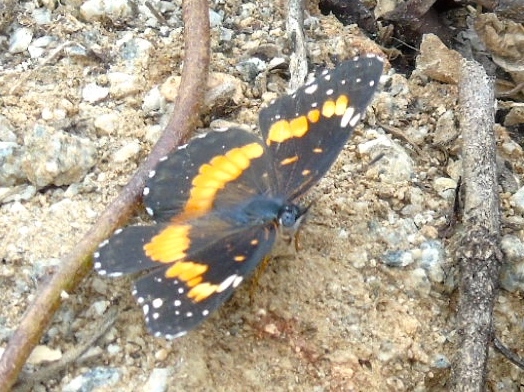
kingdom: Animalia
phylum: Arthropoda
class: Insecta
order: Lepidoptera
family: Nymphalidae
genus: Chlosyne
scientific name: Chlosyne lacinia
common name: Bordered patch
